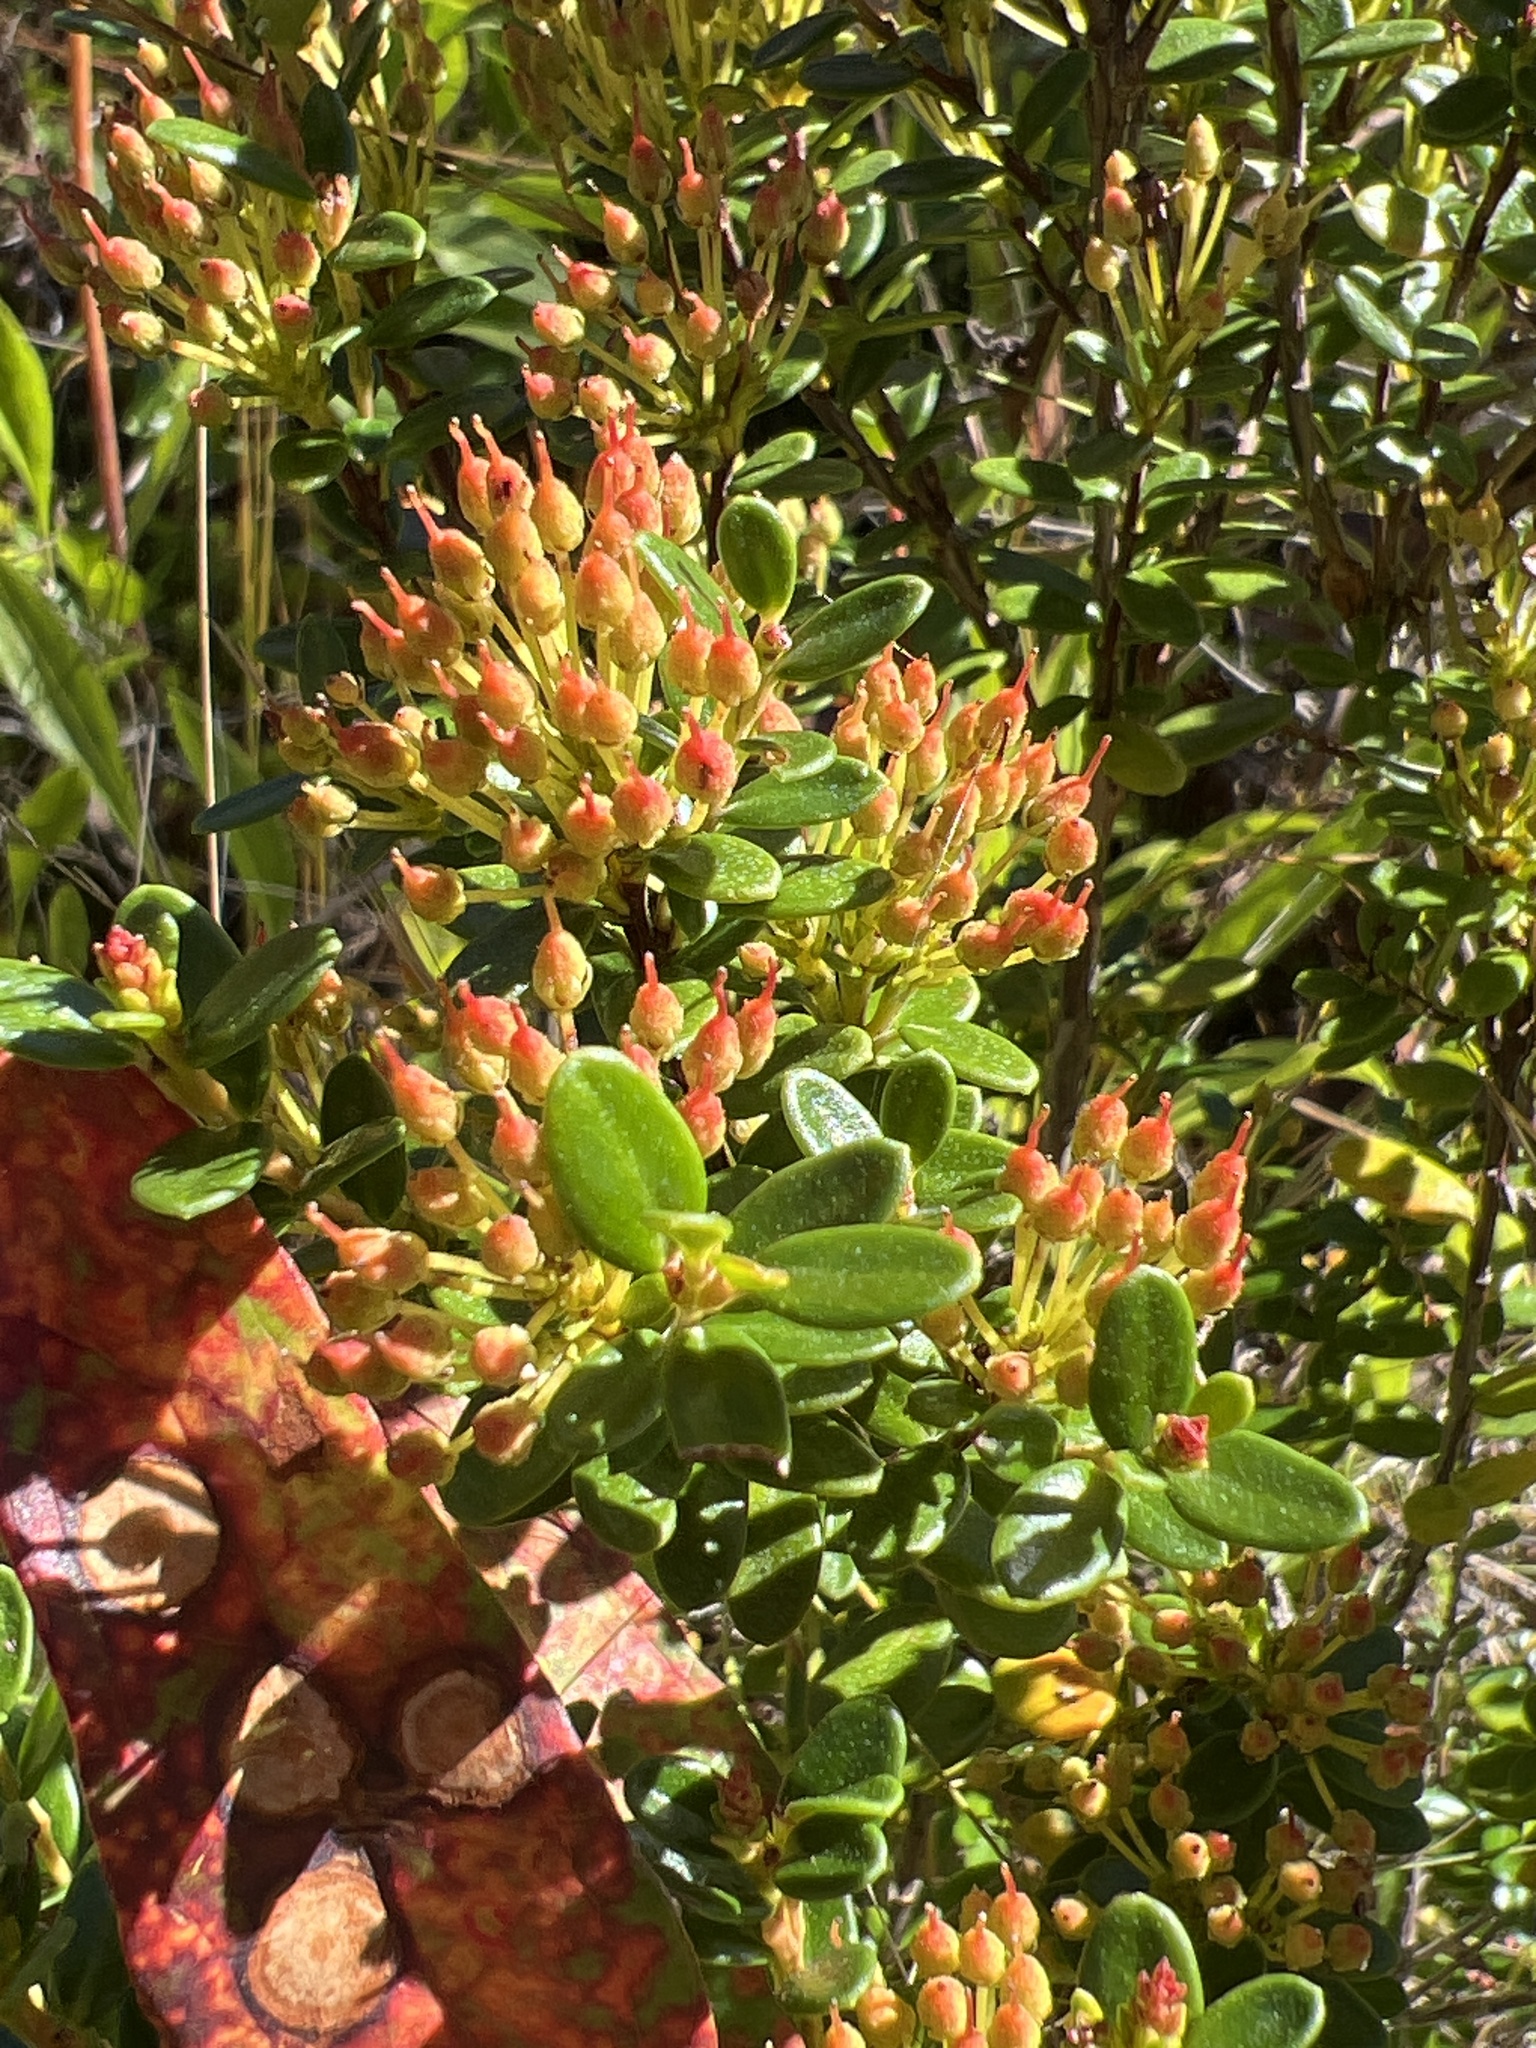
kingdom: Plantae
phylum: Tracheophyta
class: Magnoliopsida
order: Ericales
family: Ericaceae
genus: Kalmia
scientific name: Kalmia buxifolia
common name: Sandmyrtle
